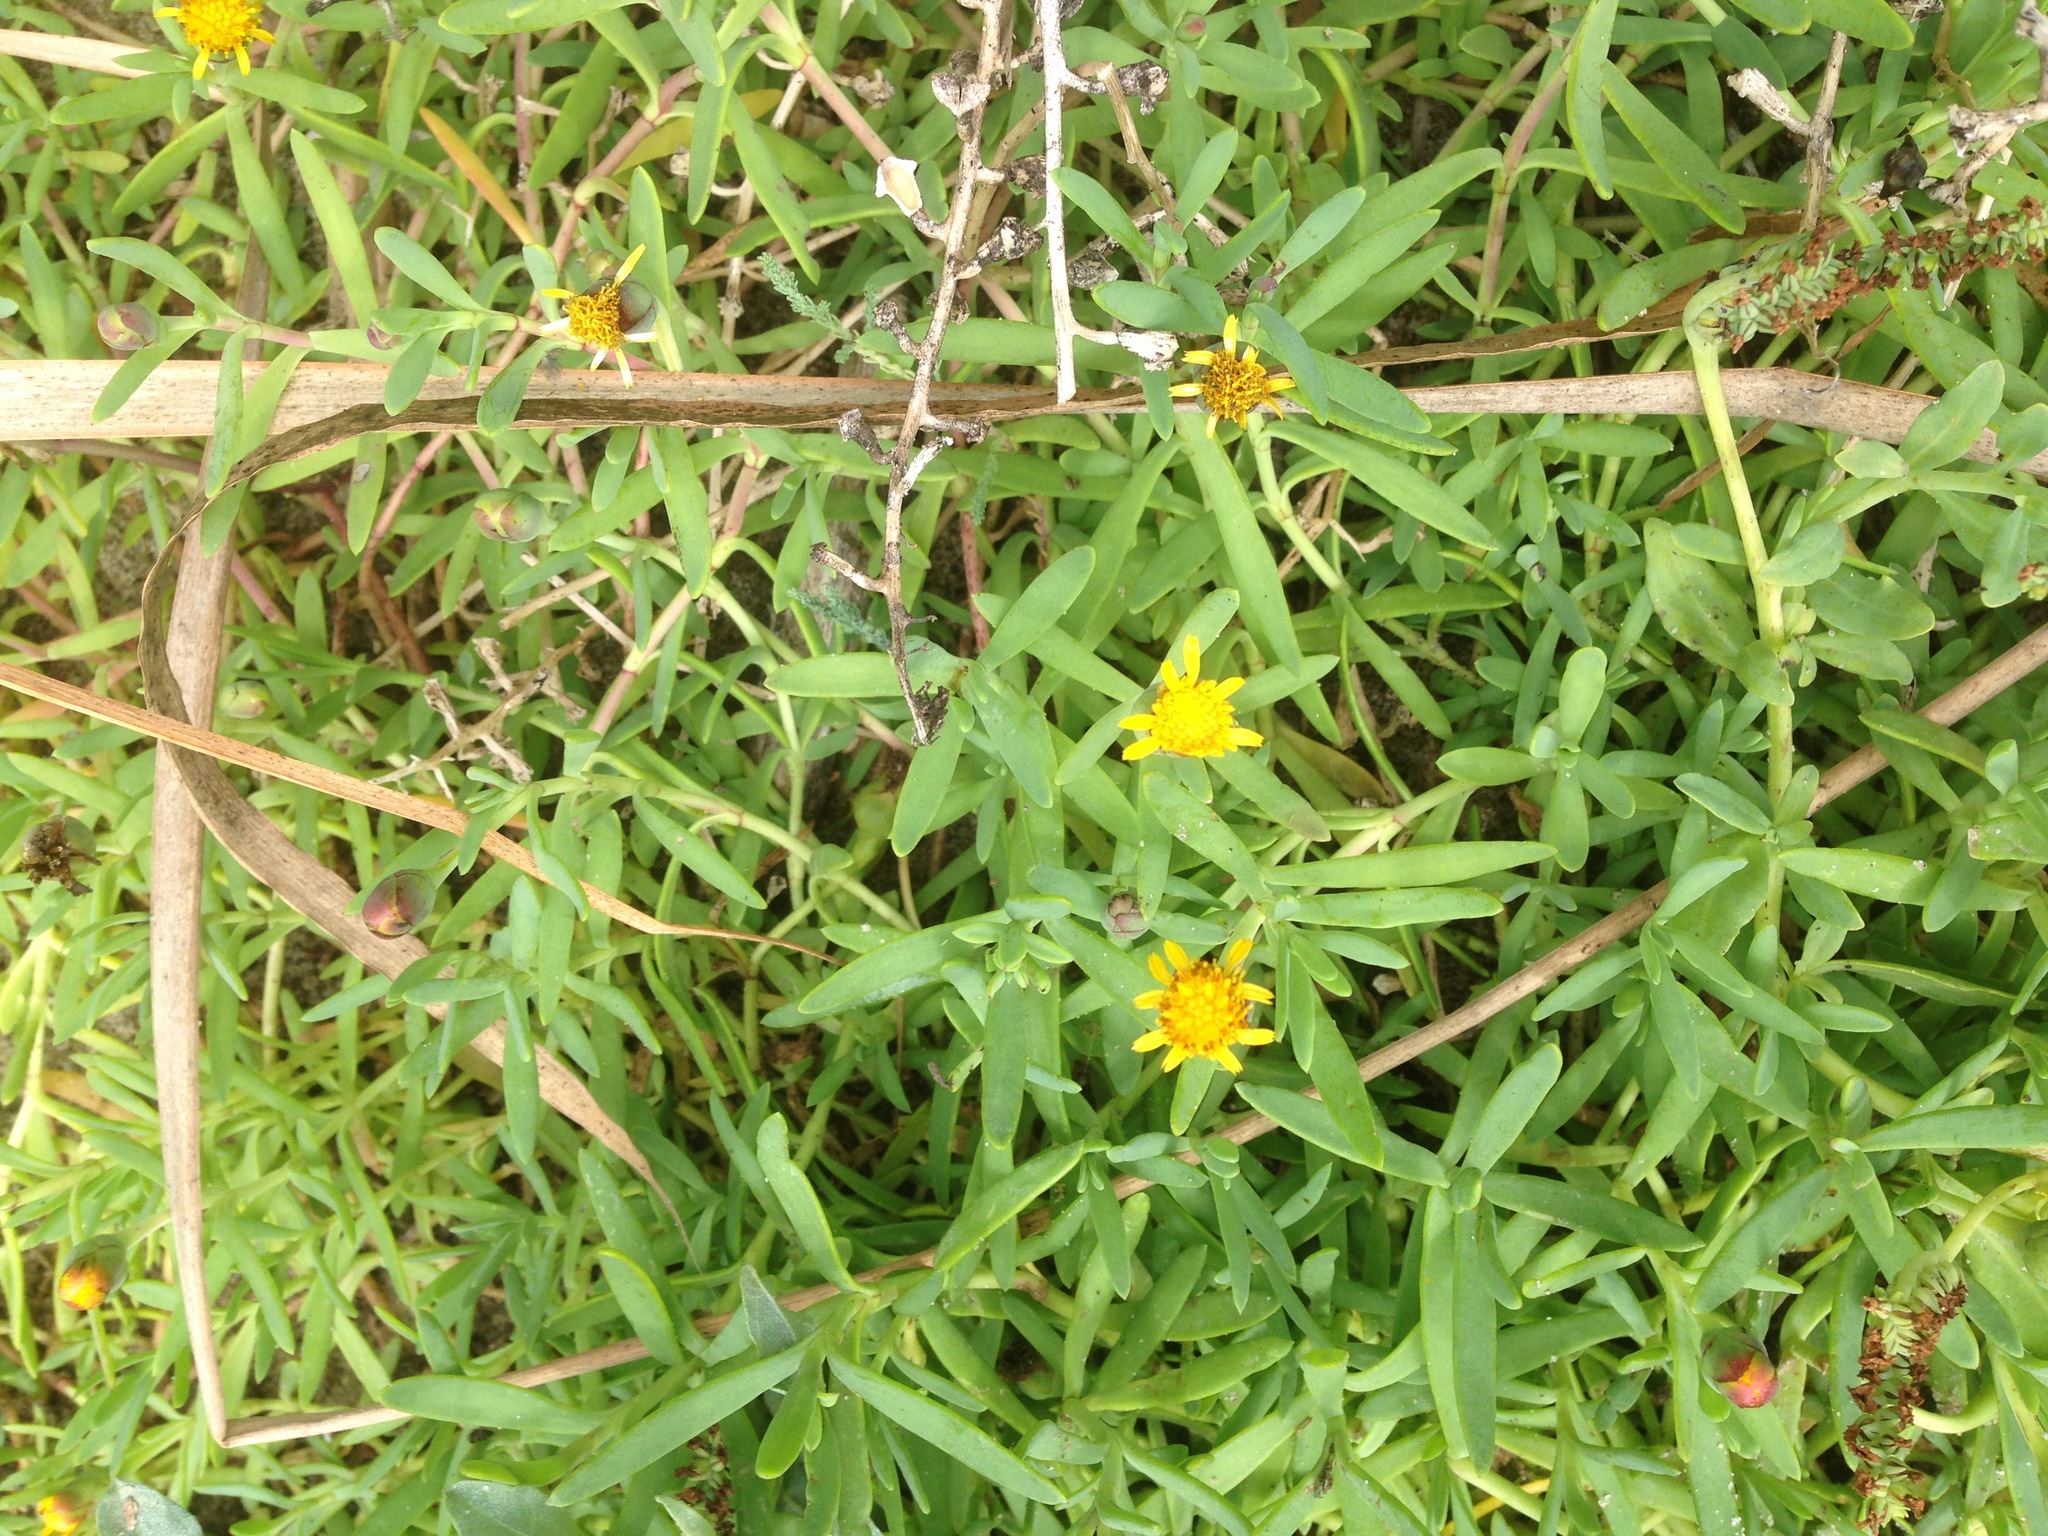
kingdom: Plantae
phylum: Tracheophyta
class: Magnoliopsida
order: Asterales
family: Asteraceae
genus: Jaumea
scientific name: Jaumea carnosa
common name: Fleshy jaumea
